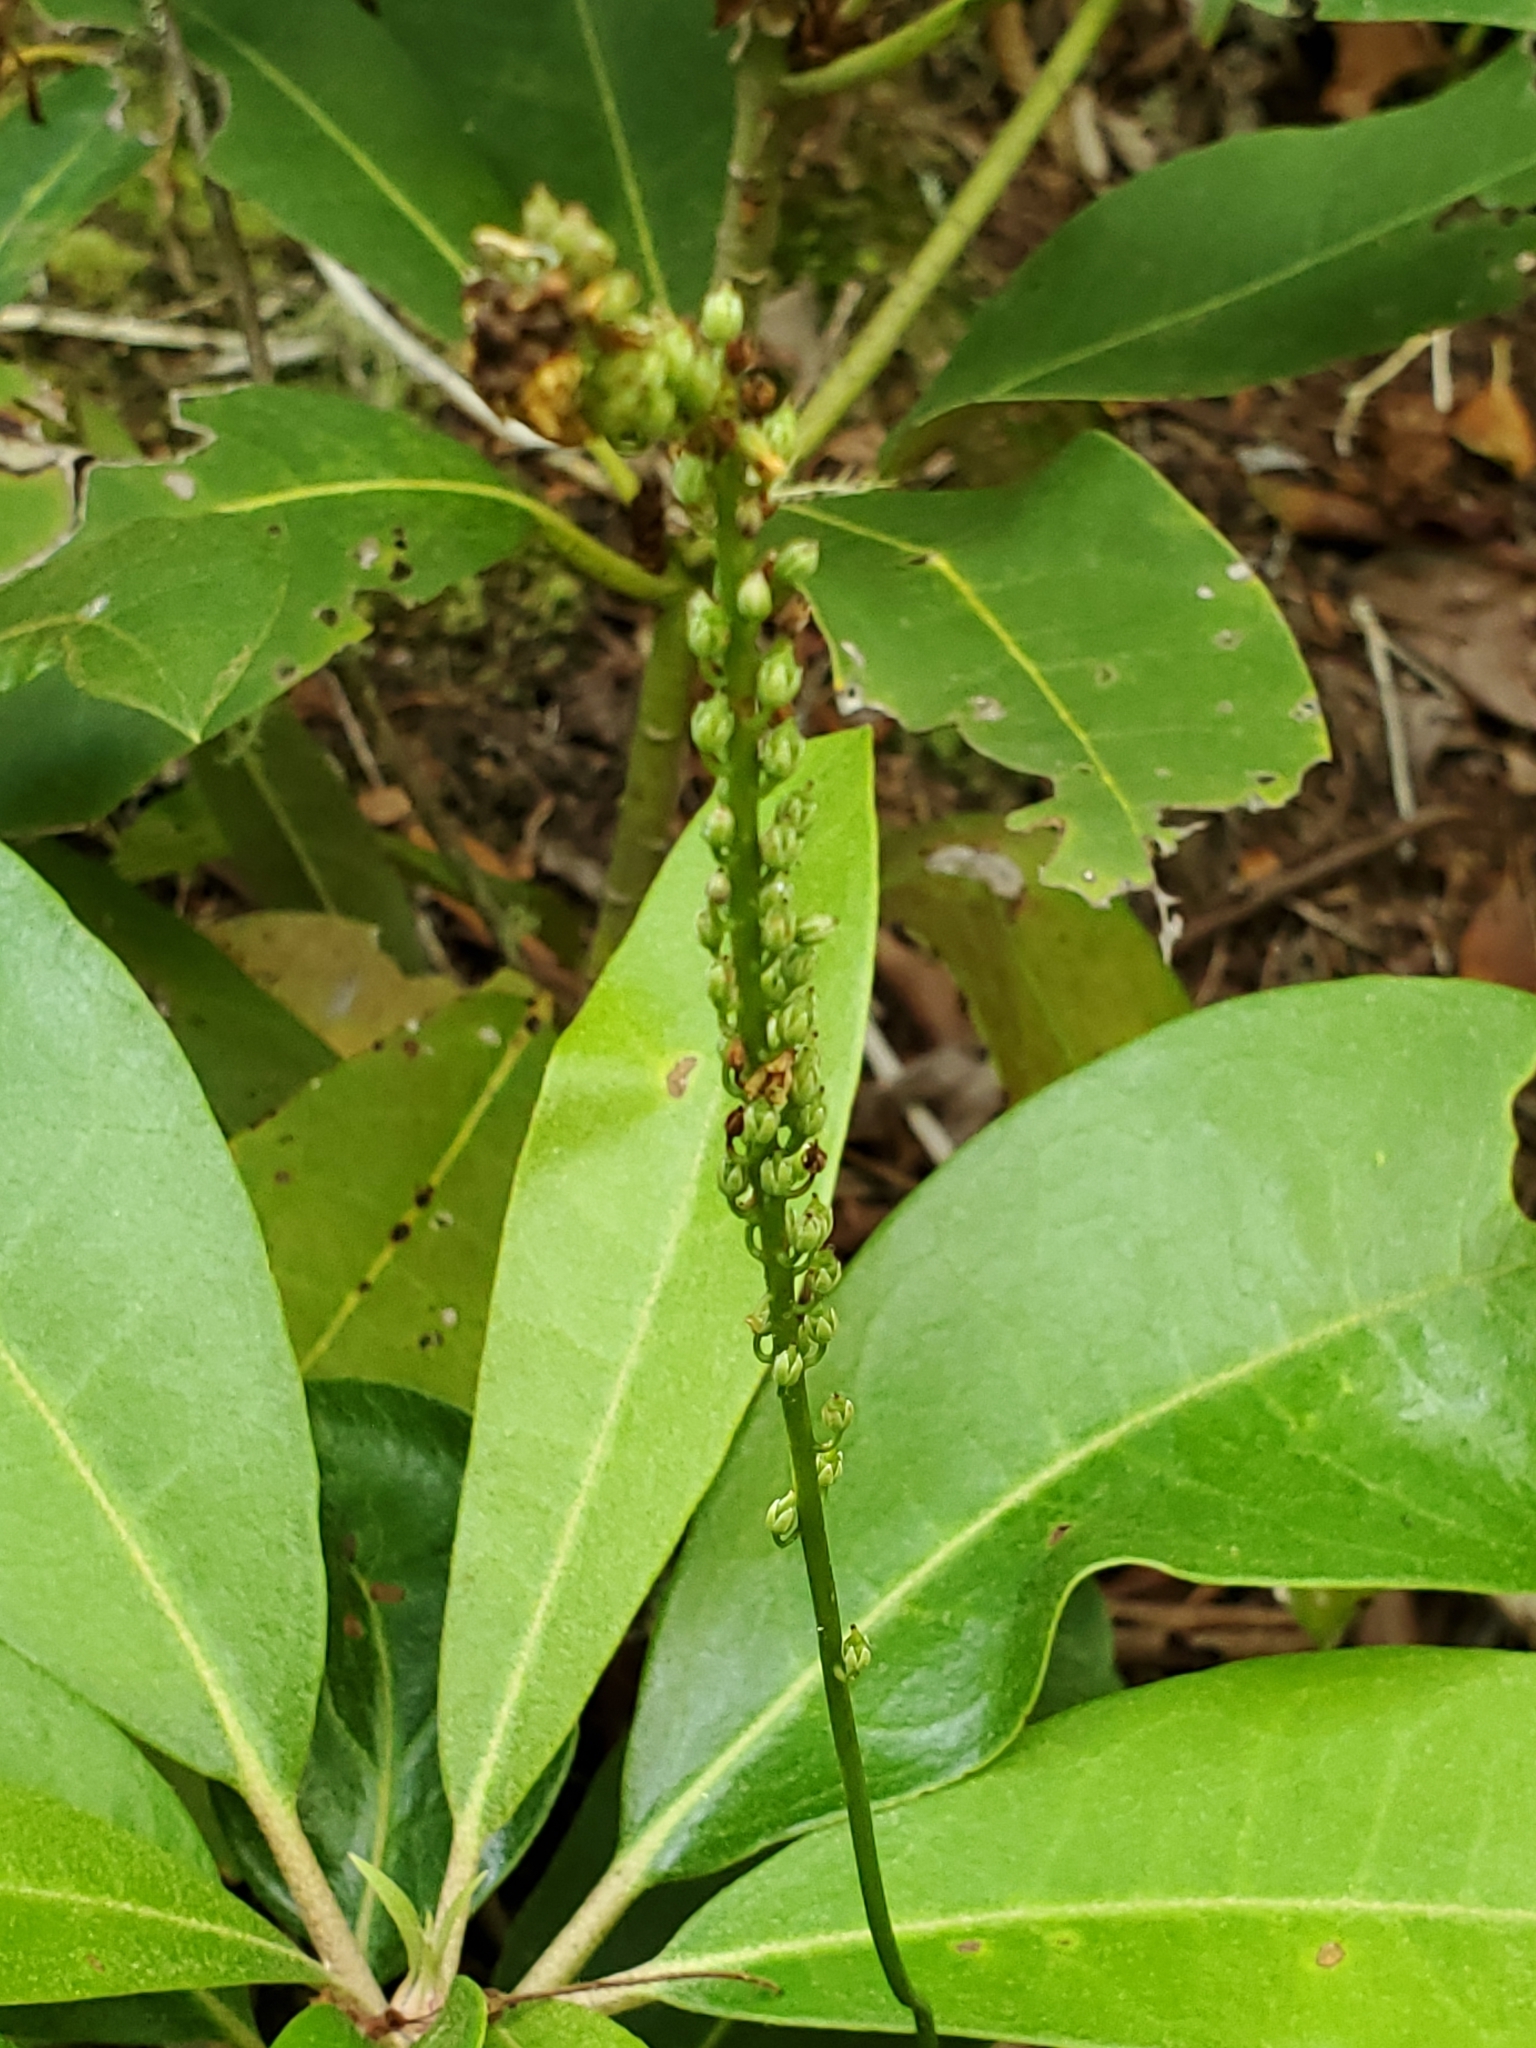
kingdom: Plantae
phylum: Tracheophyta
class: Magnoliopsida
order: Ericales
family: Diapensiaceae
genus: Galax
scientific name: Galax urceolata
